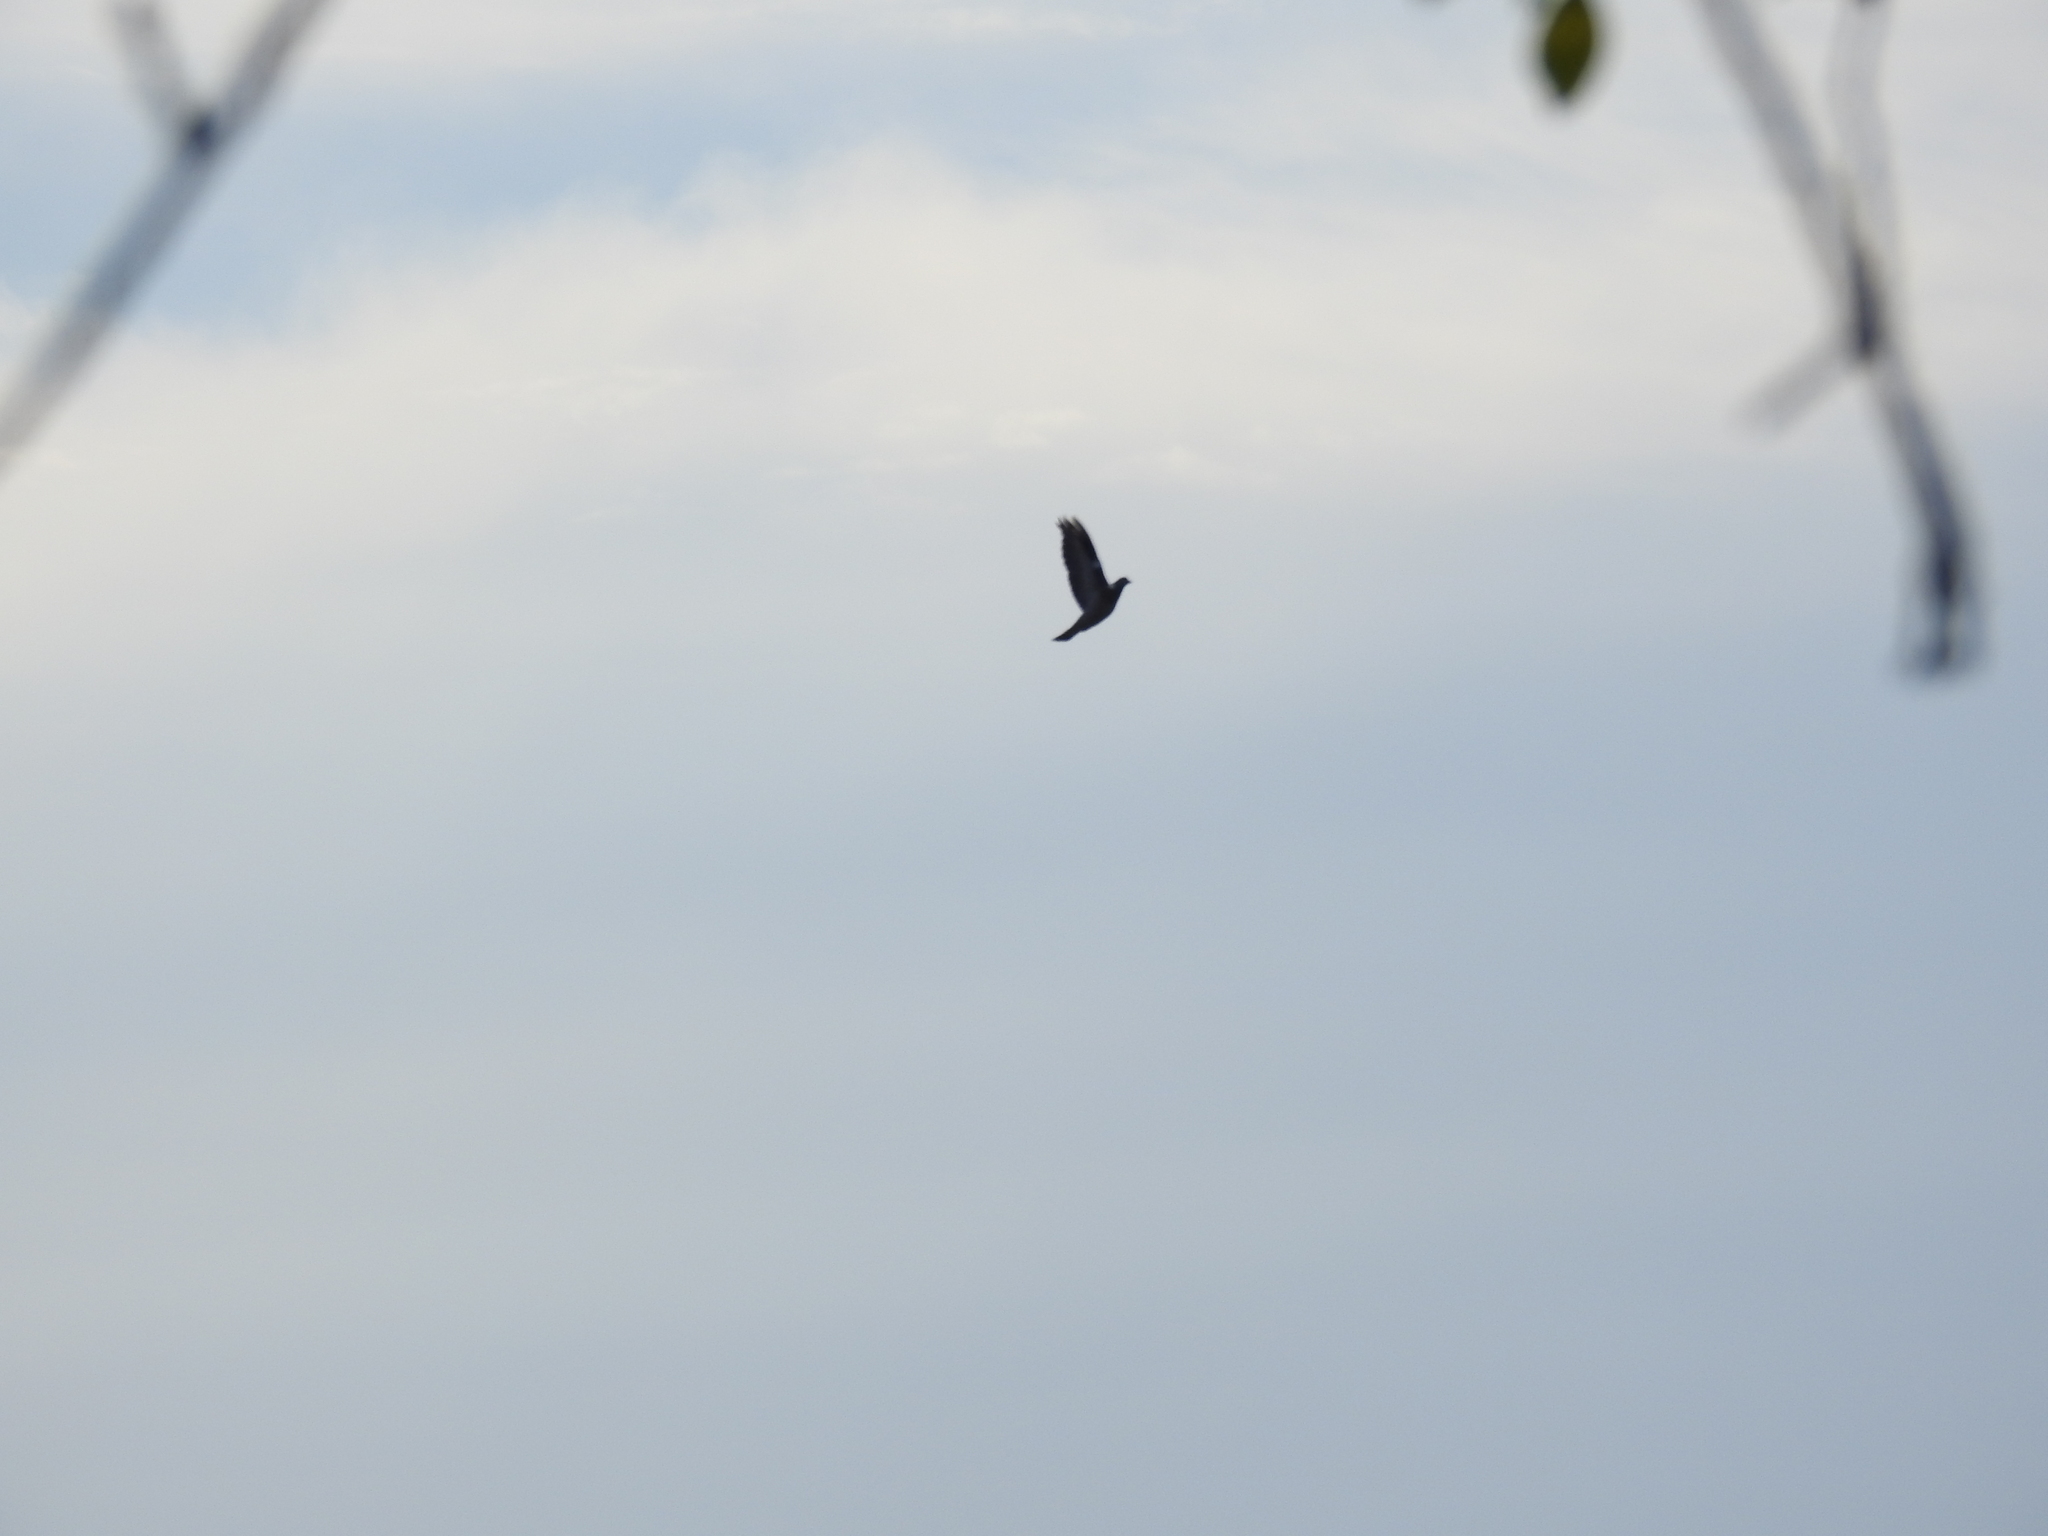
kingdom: Animalia
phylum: Chordata
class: Aves
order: Columbiformes
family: Columbidae
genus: Columba
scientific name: Columba palumbus
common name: Common wood pigeon
